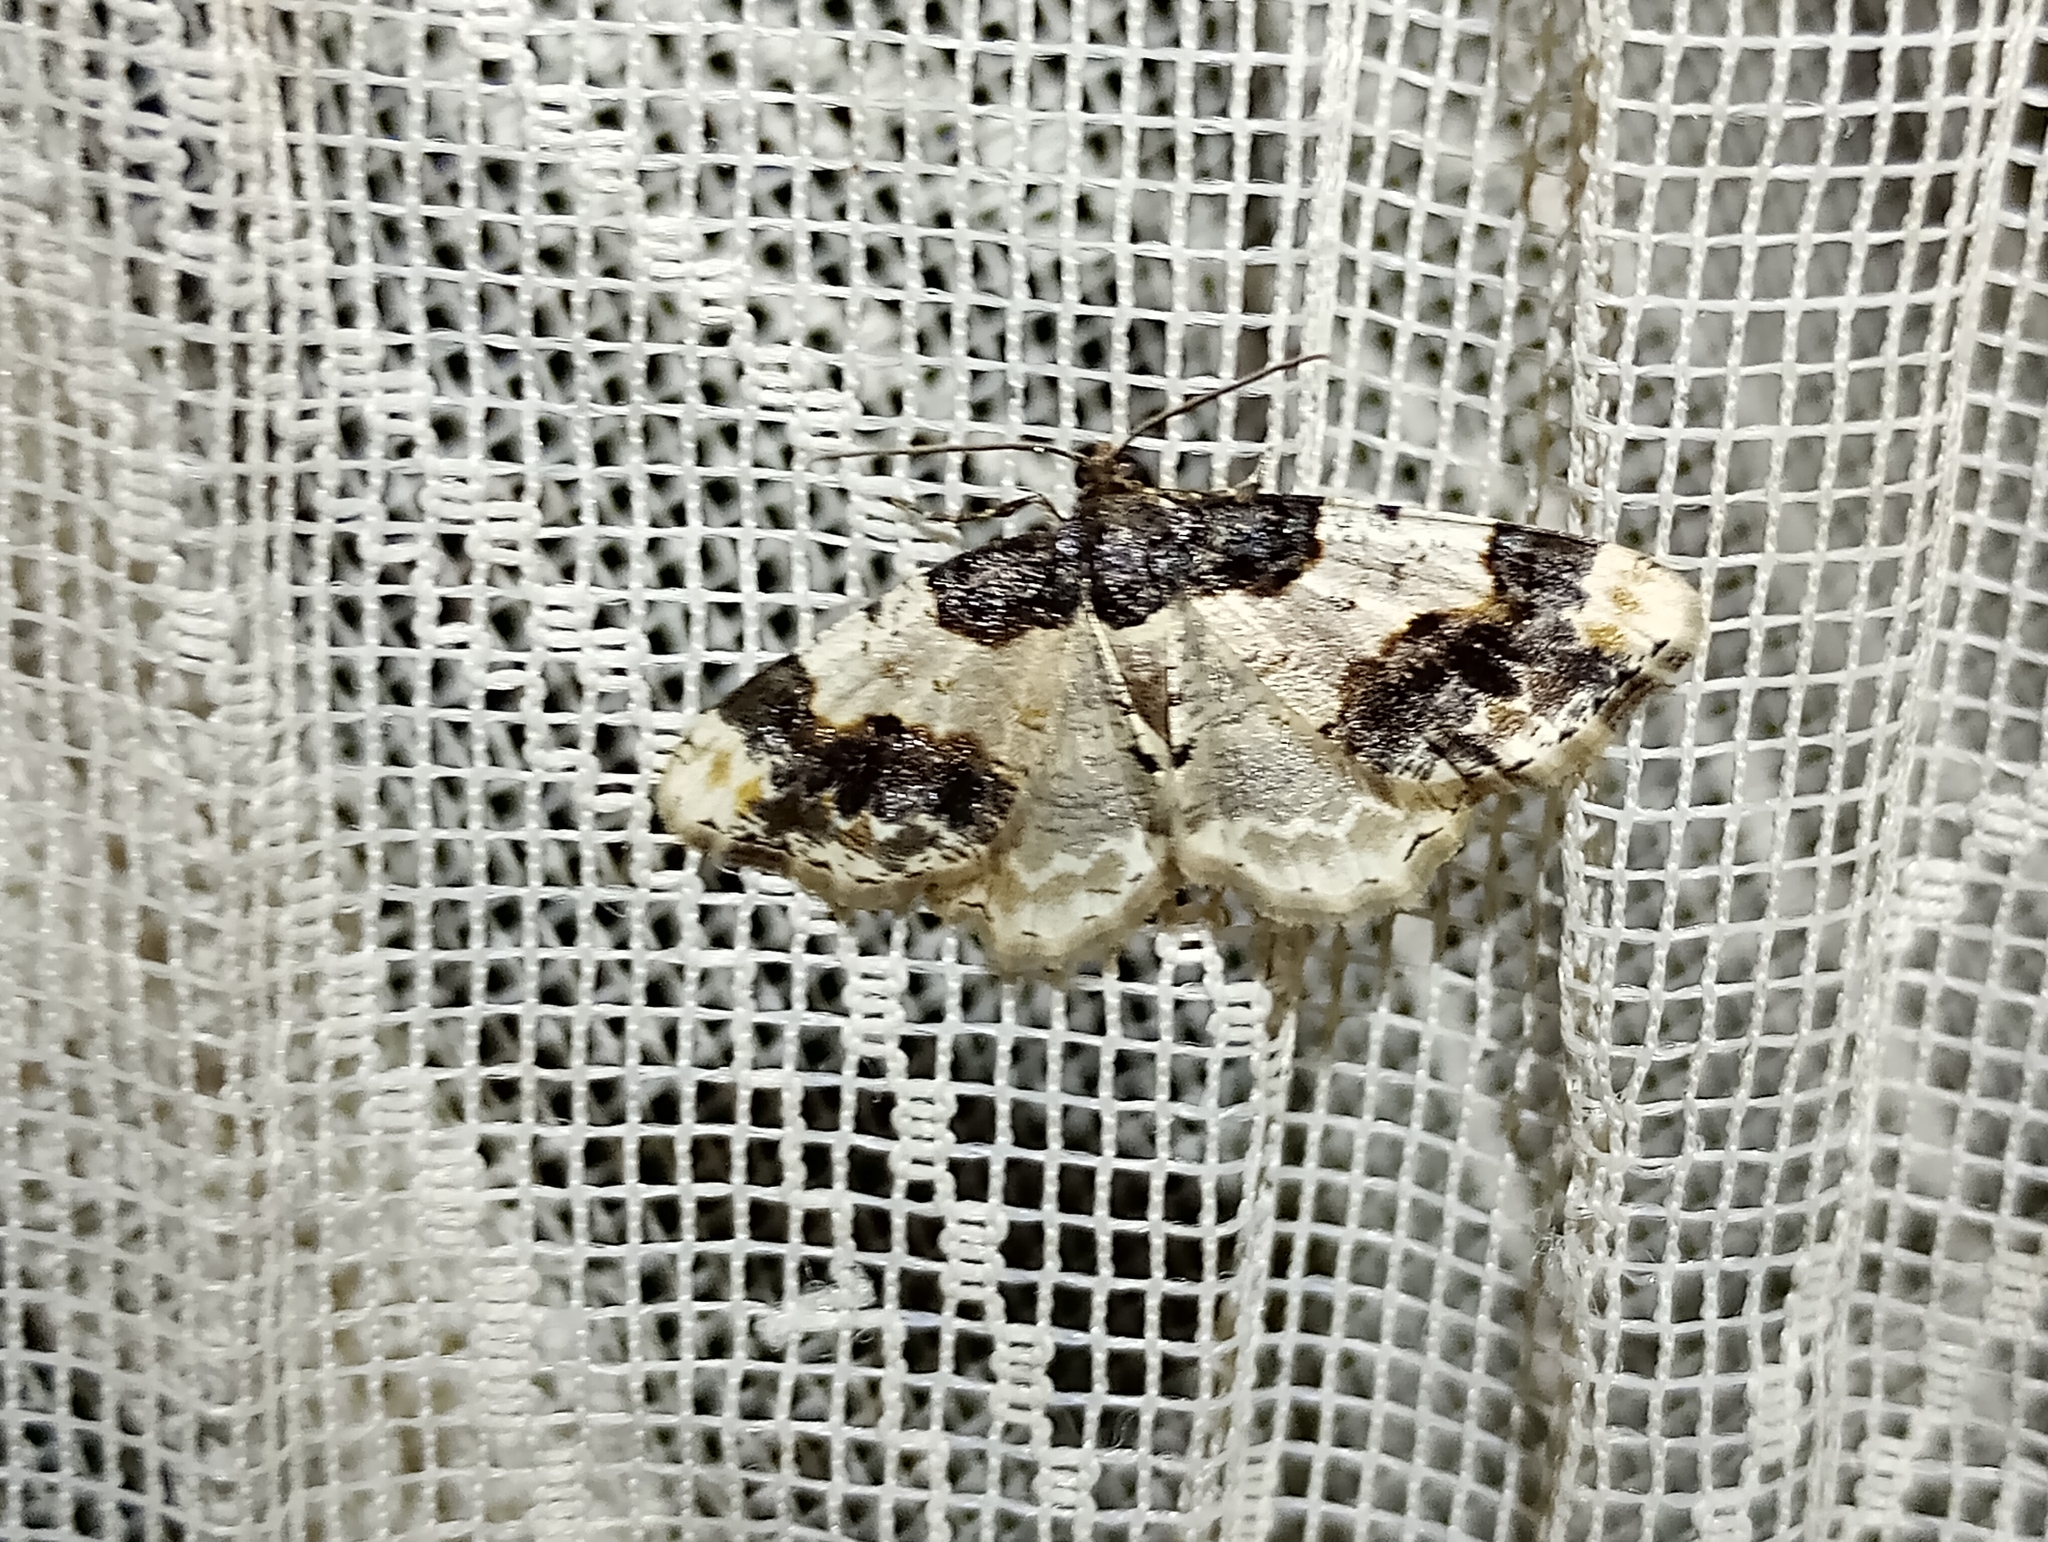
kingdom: Animalia
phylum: Arthropoda
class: Insecta
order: Lepidoptera
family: Geometridae
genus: Ligdia
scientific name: Ligdia adustata
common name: Scorched carpet
